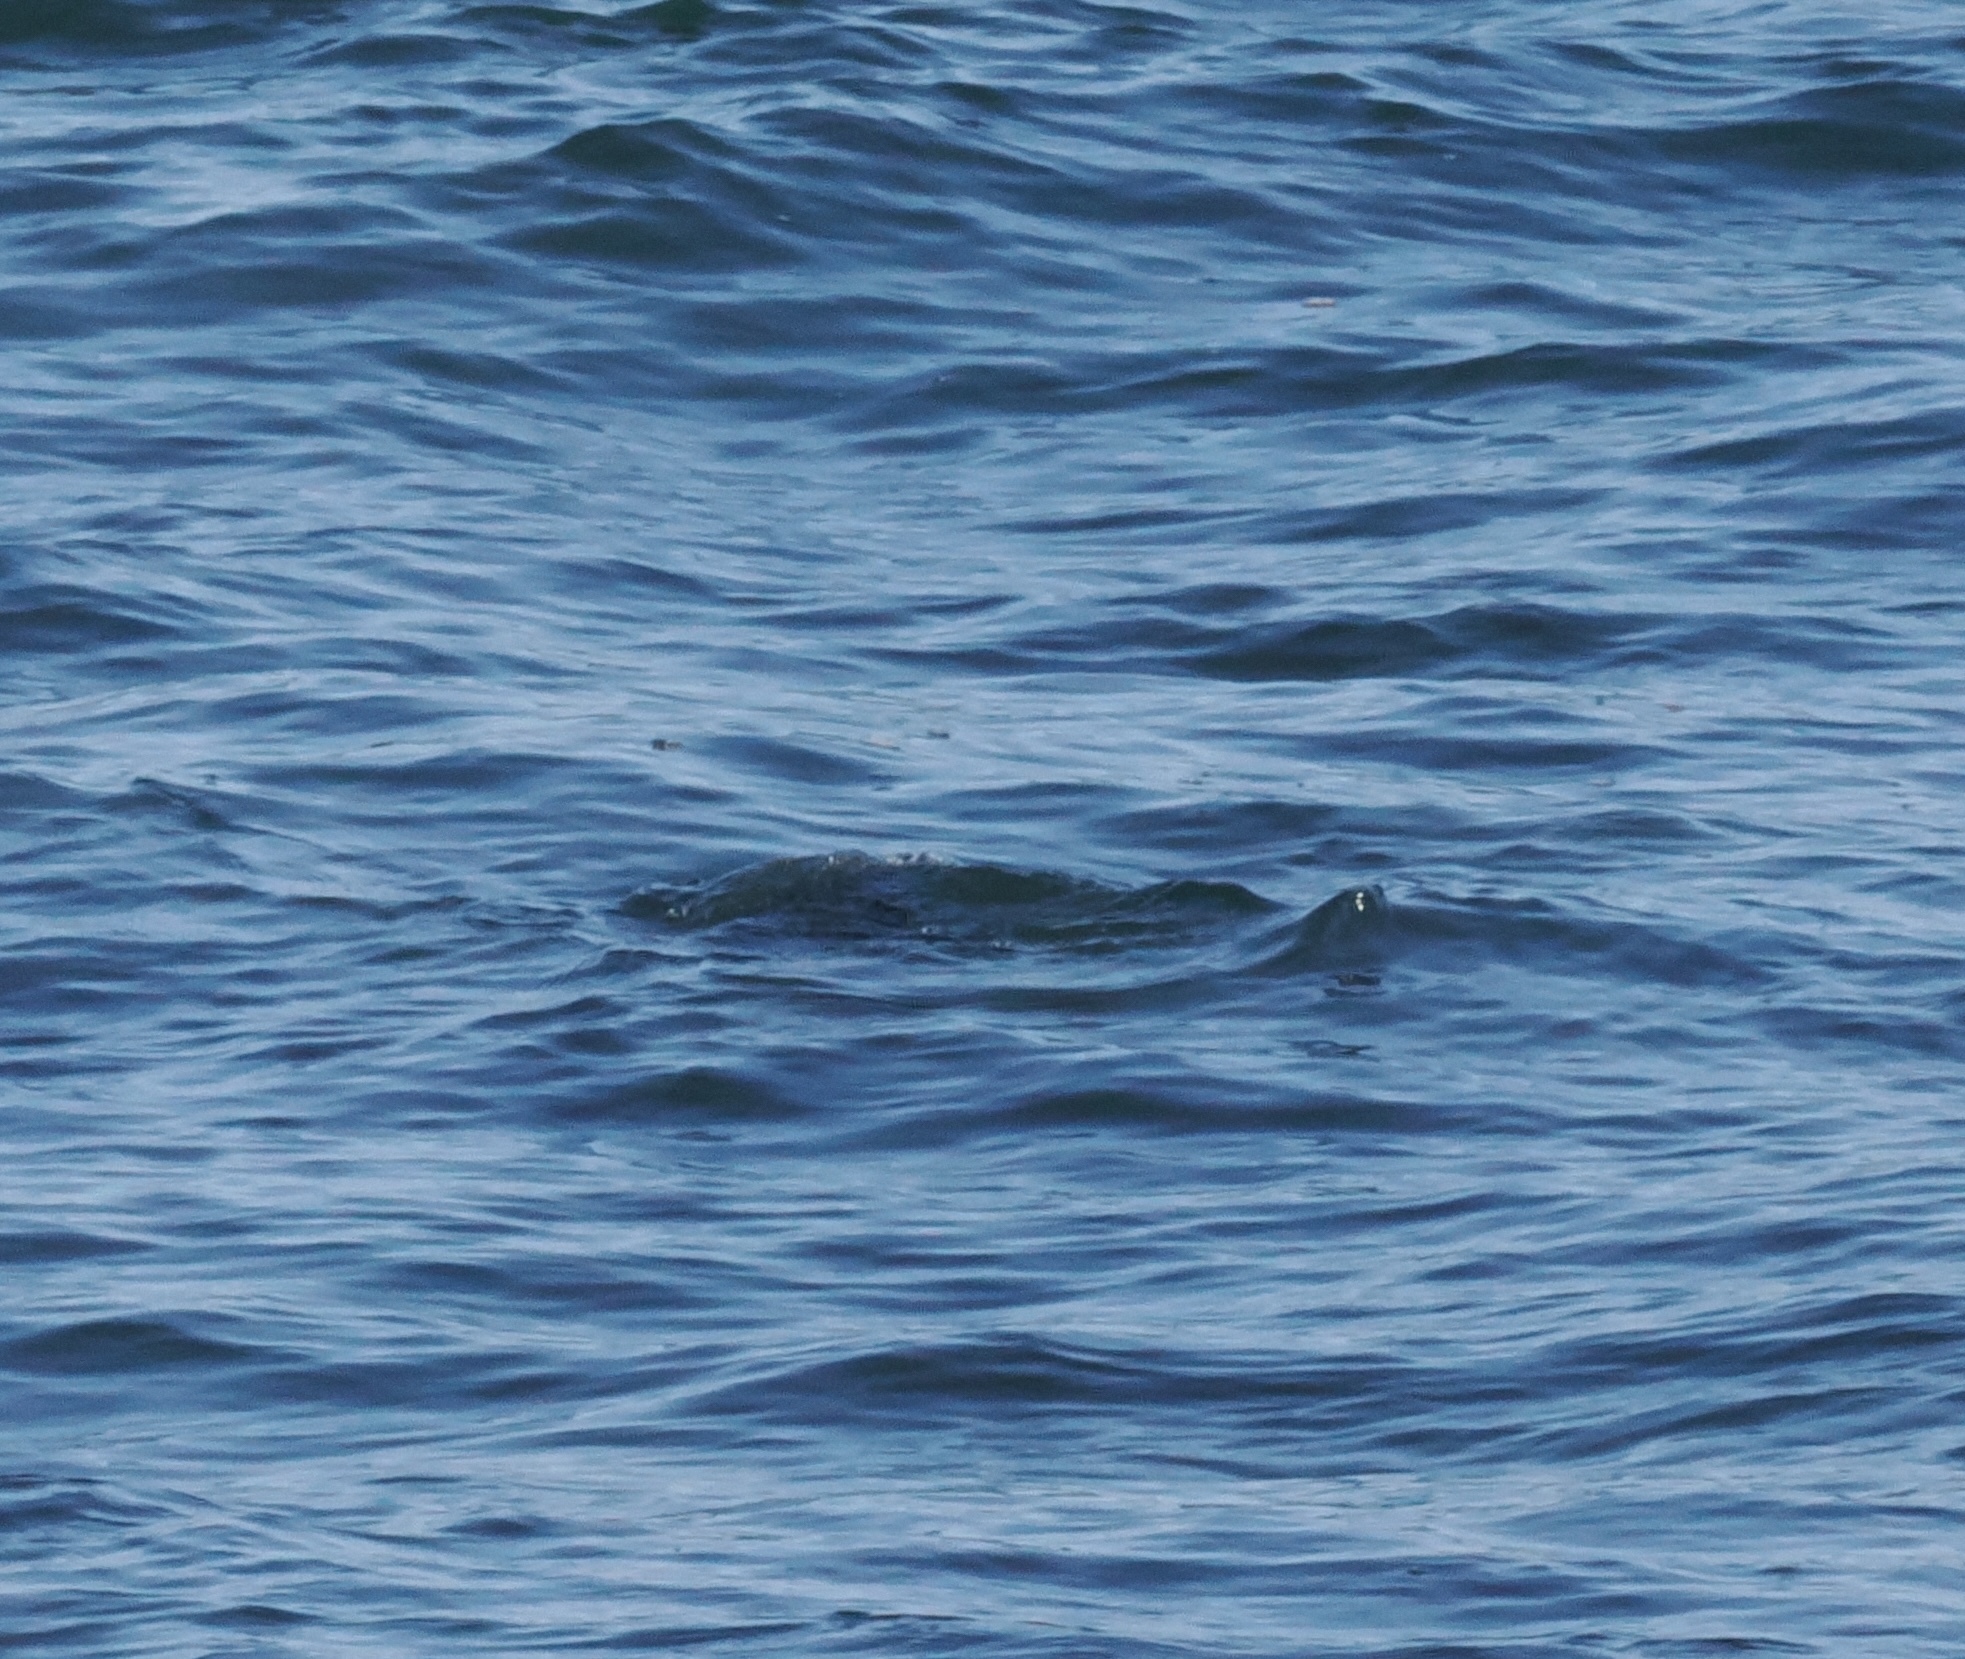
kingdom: Animalia
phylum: Chordata
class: Aves
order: Suliformes
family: Phalacrocoracidae
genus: Phalacrocorax
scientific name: Phalacrocorax pelagicus
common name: Pelagic cormorant
